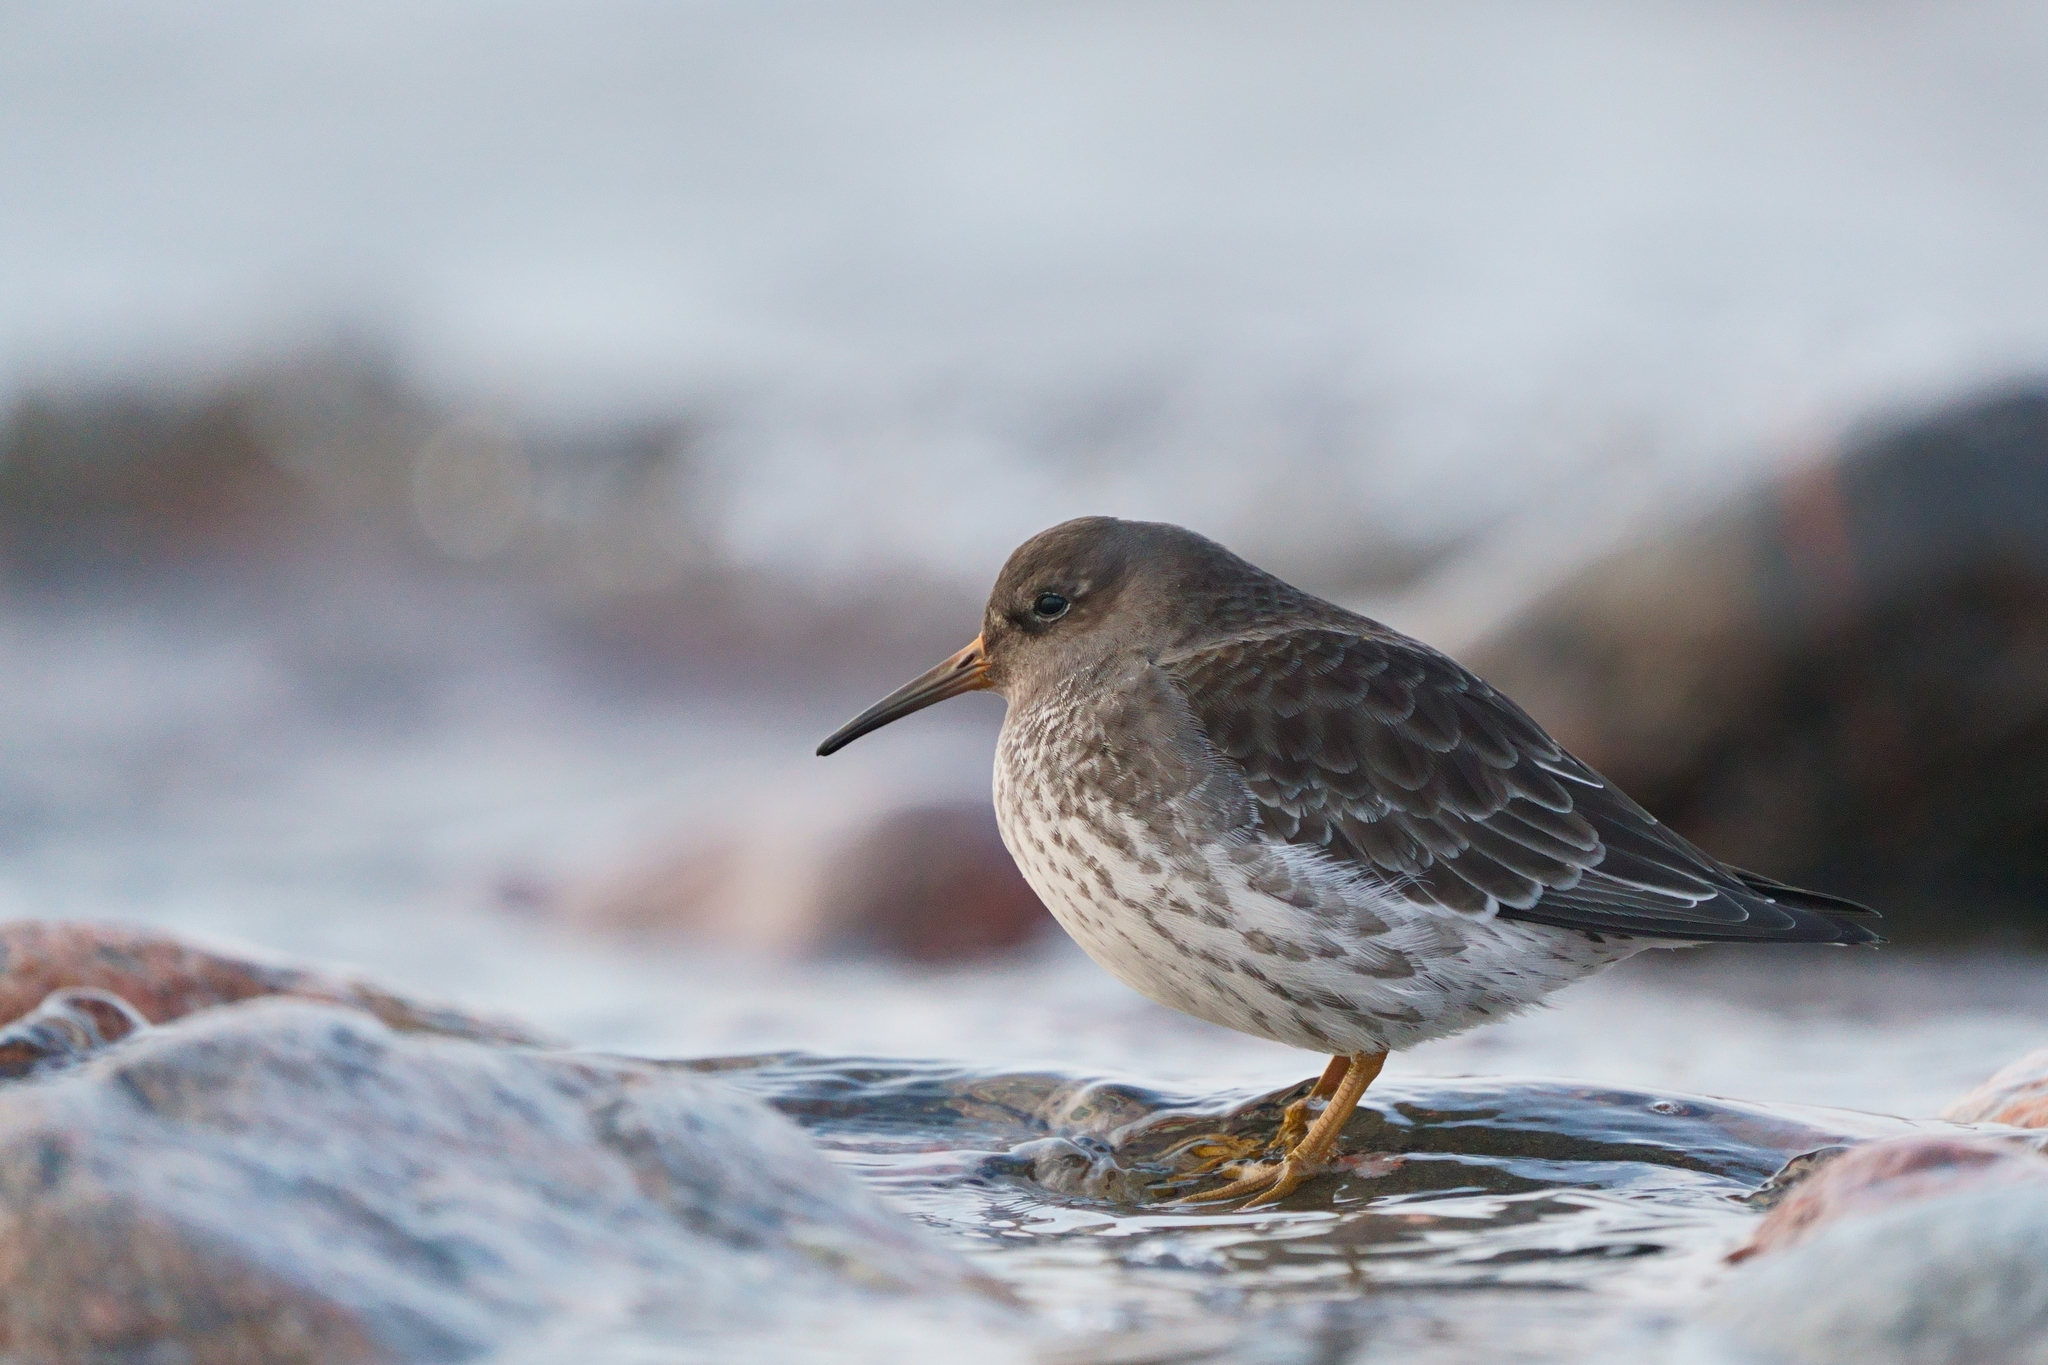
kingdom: Animalia
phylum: Chordata
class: Aves
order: Charadriiformes
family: Scolopacidae
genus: Calidris
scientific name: Calidris maritima
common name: Purple sandpiper
